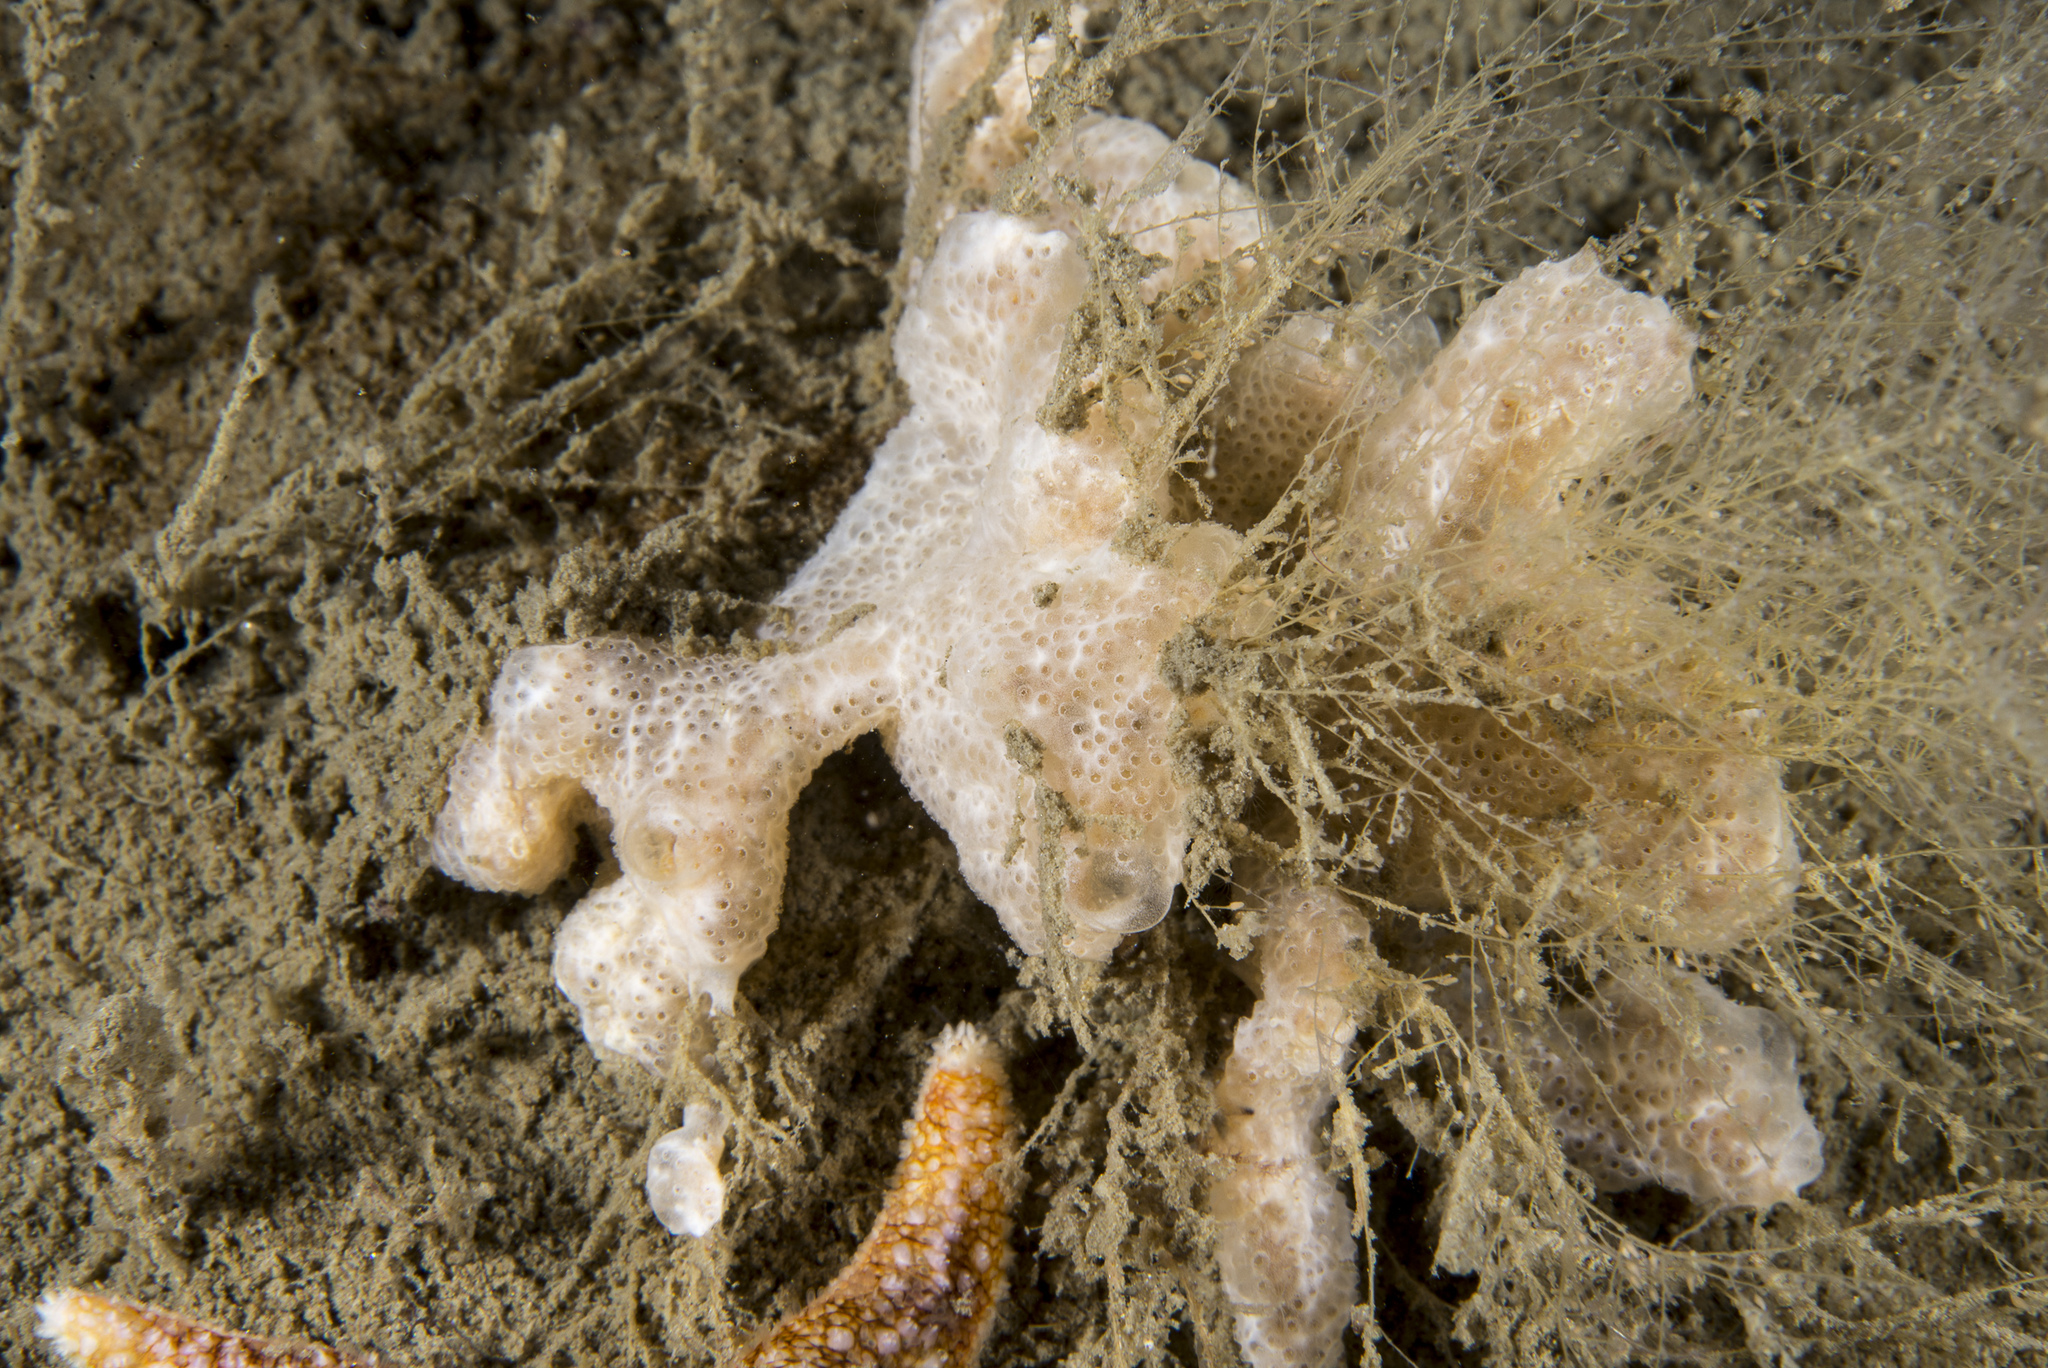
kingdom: Animalia
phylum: Chordata
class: Ascidiacea
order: Aplousobranchia
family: Didemnidae
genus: Trididemnum
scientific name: Trididemnum cereum
